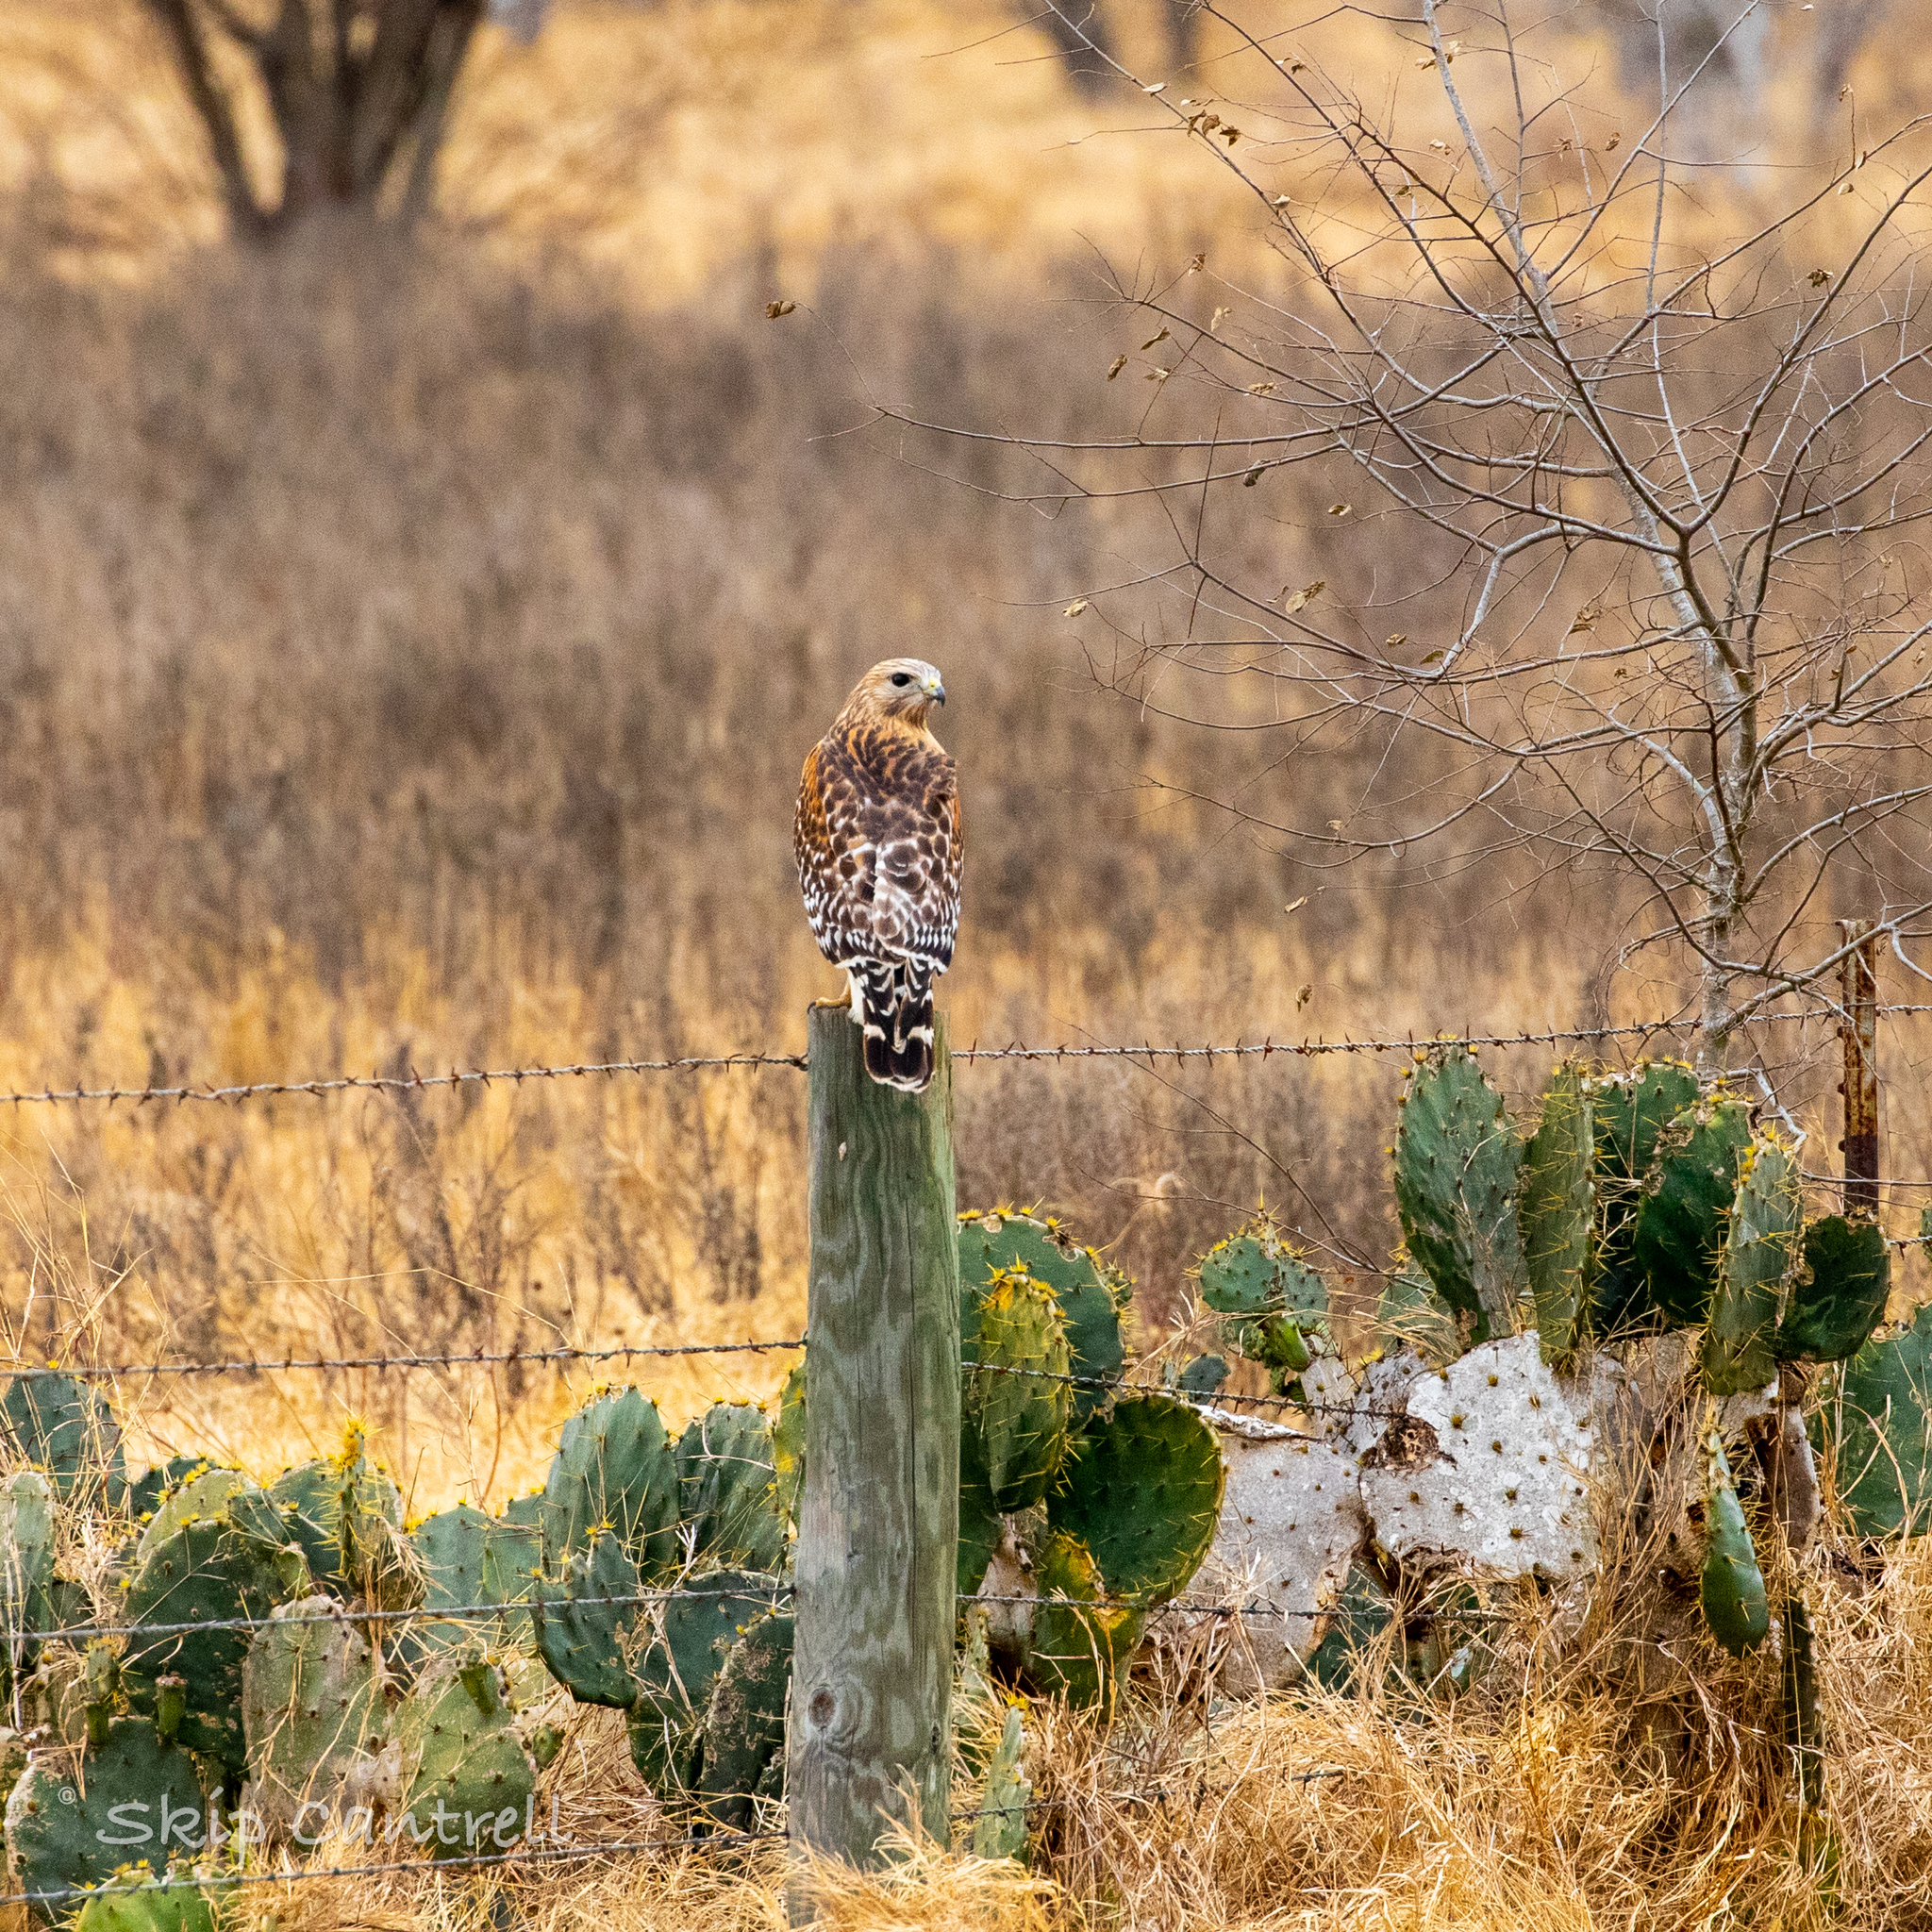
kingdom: Animalia
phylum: Chordata
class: Aves
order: Accipitriformes
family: Accipitridae
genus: Buteo
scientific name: Buteo lineatus
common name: Red-shouldered hawk
